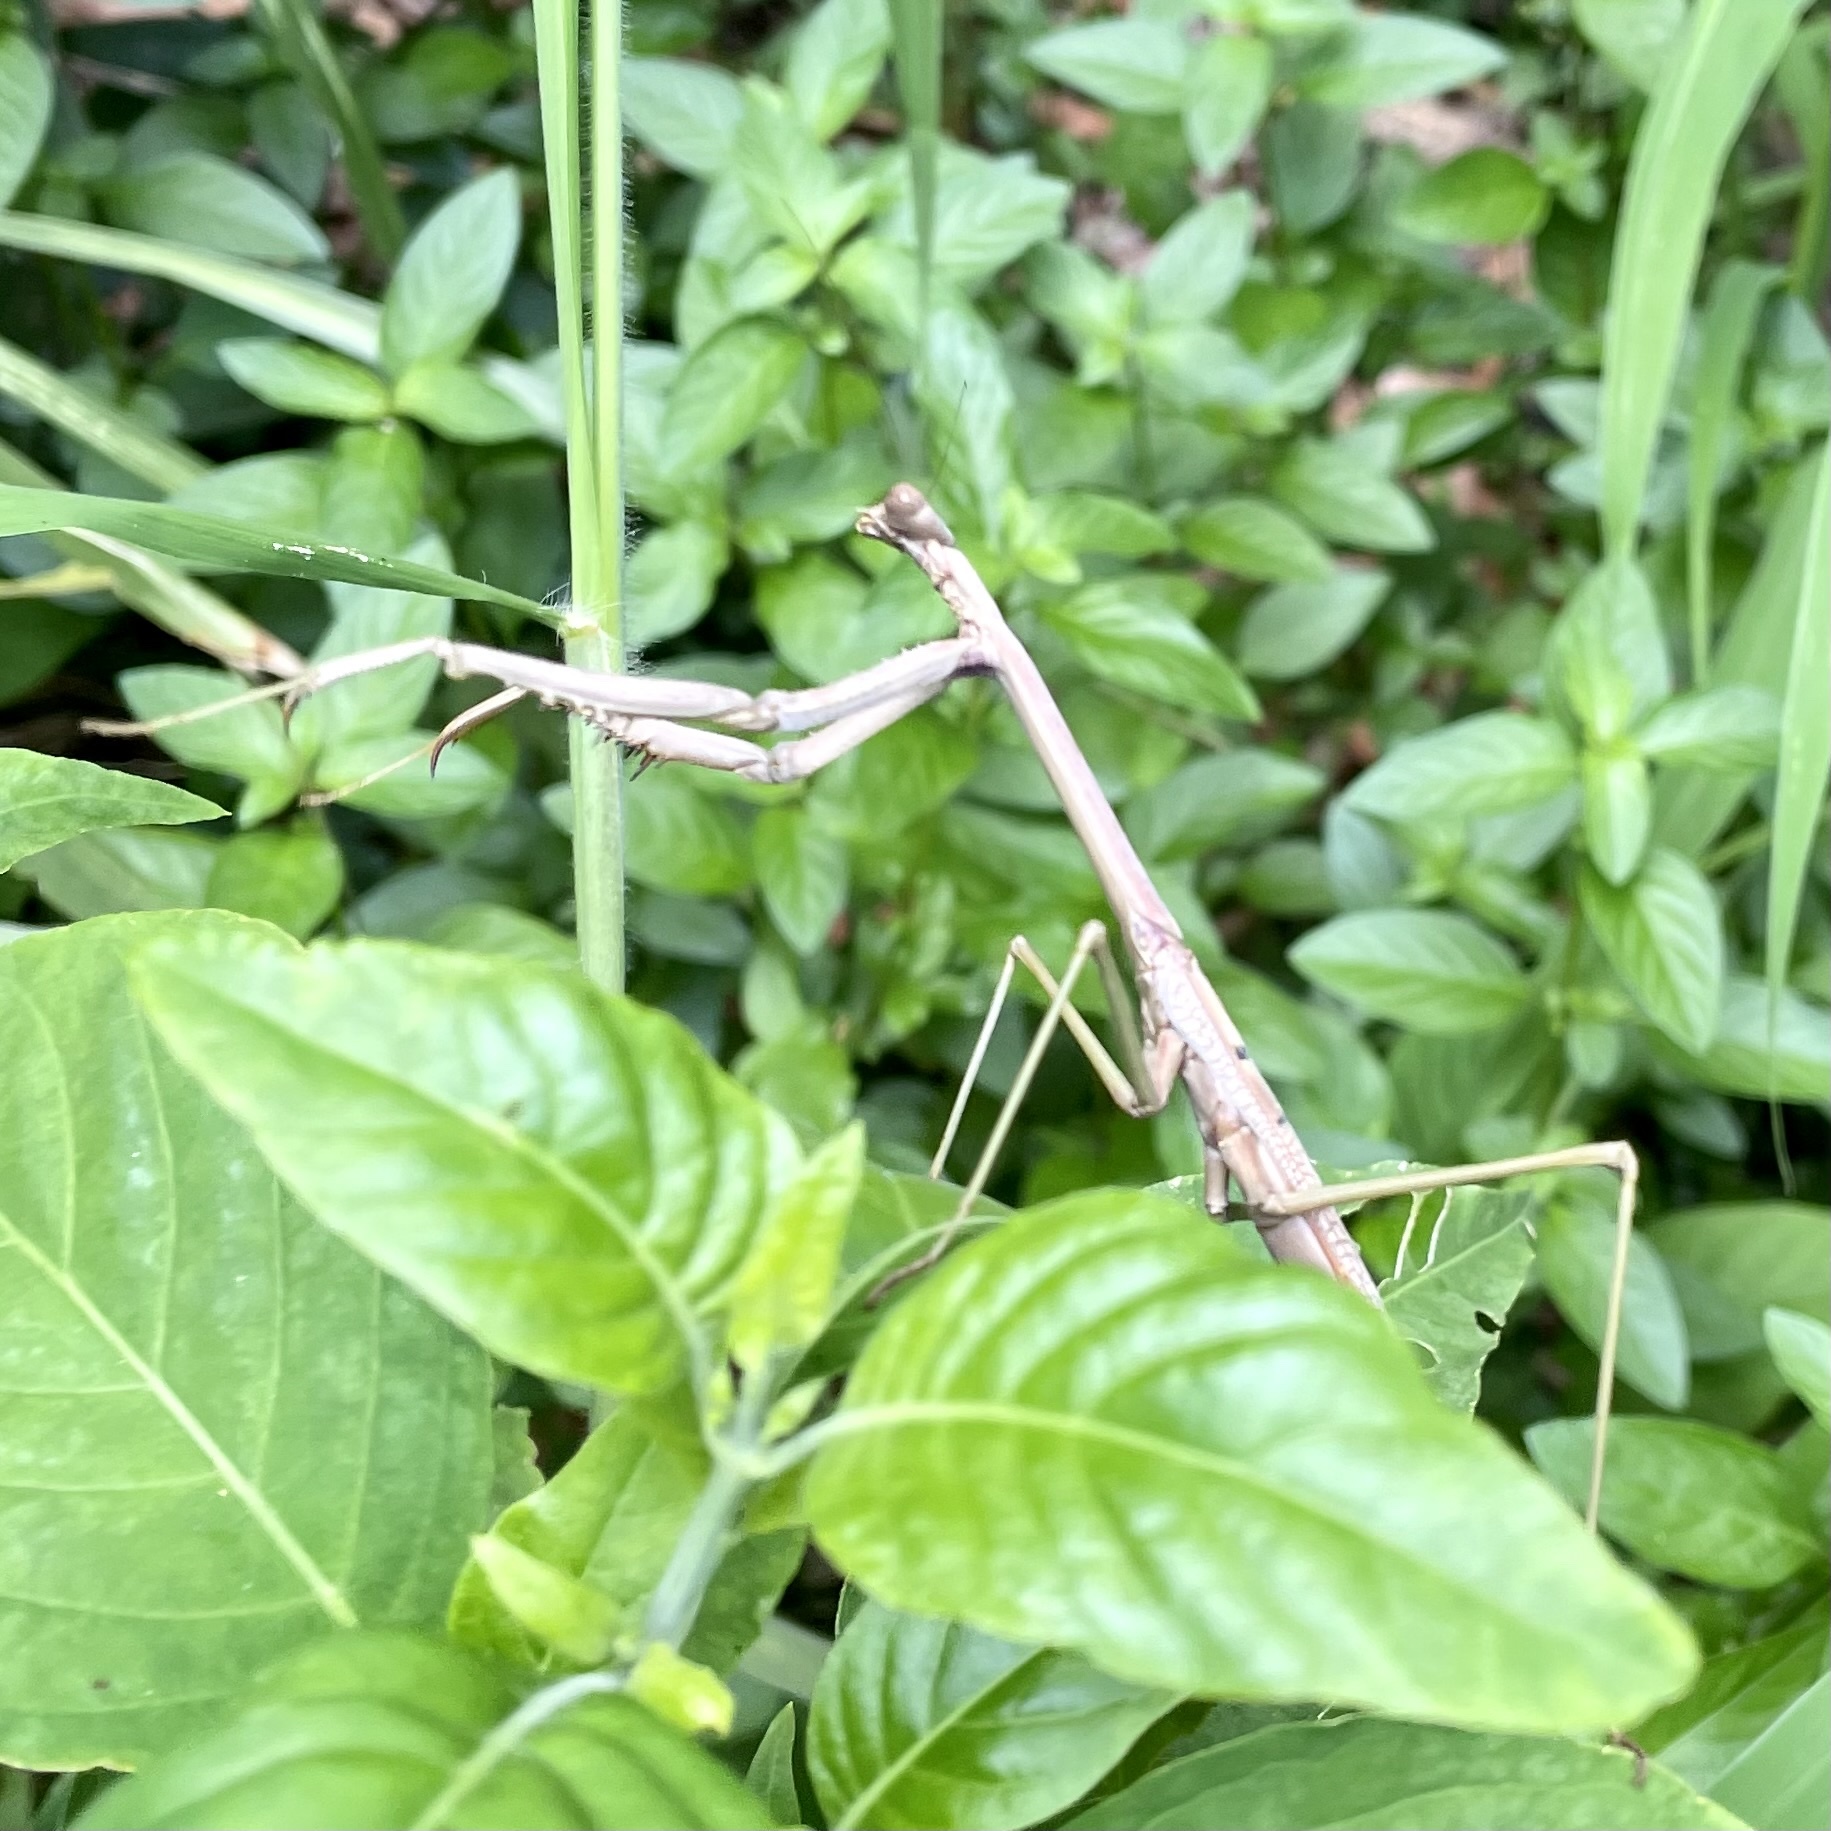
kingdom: Animalia
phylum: Arthropoda
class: Insecta
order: Mantodea
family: Mantidae
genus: Archimantis
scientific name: Archimantis latistyla
